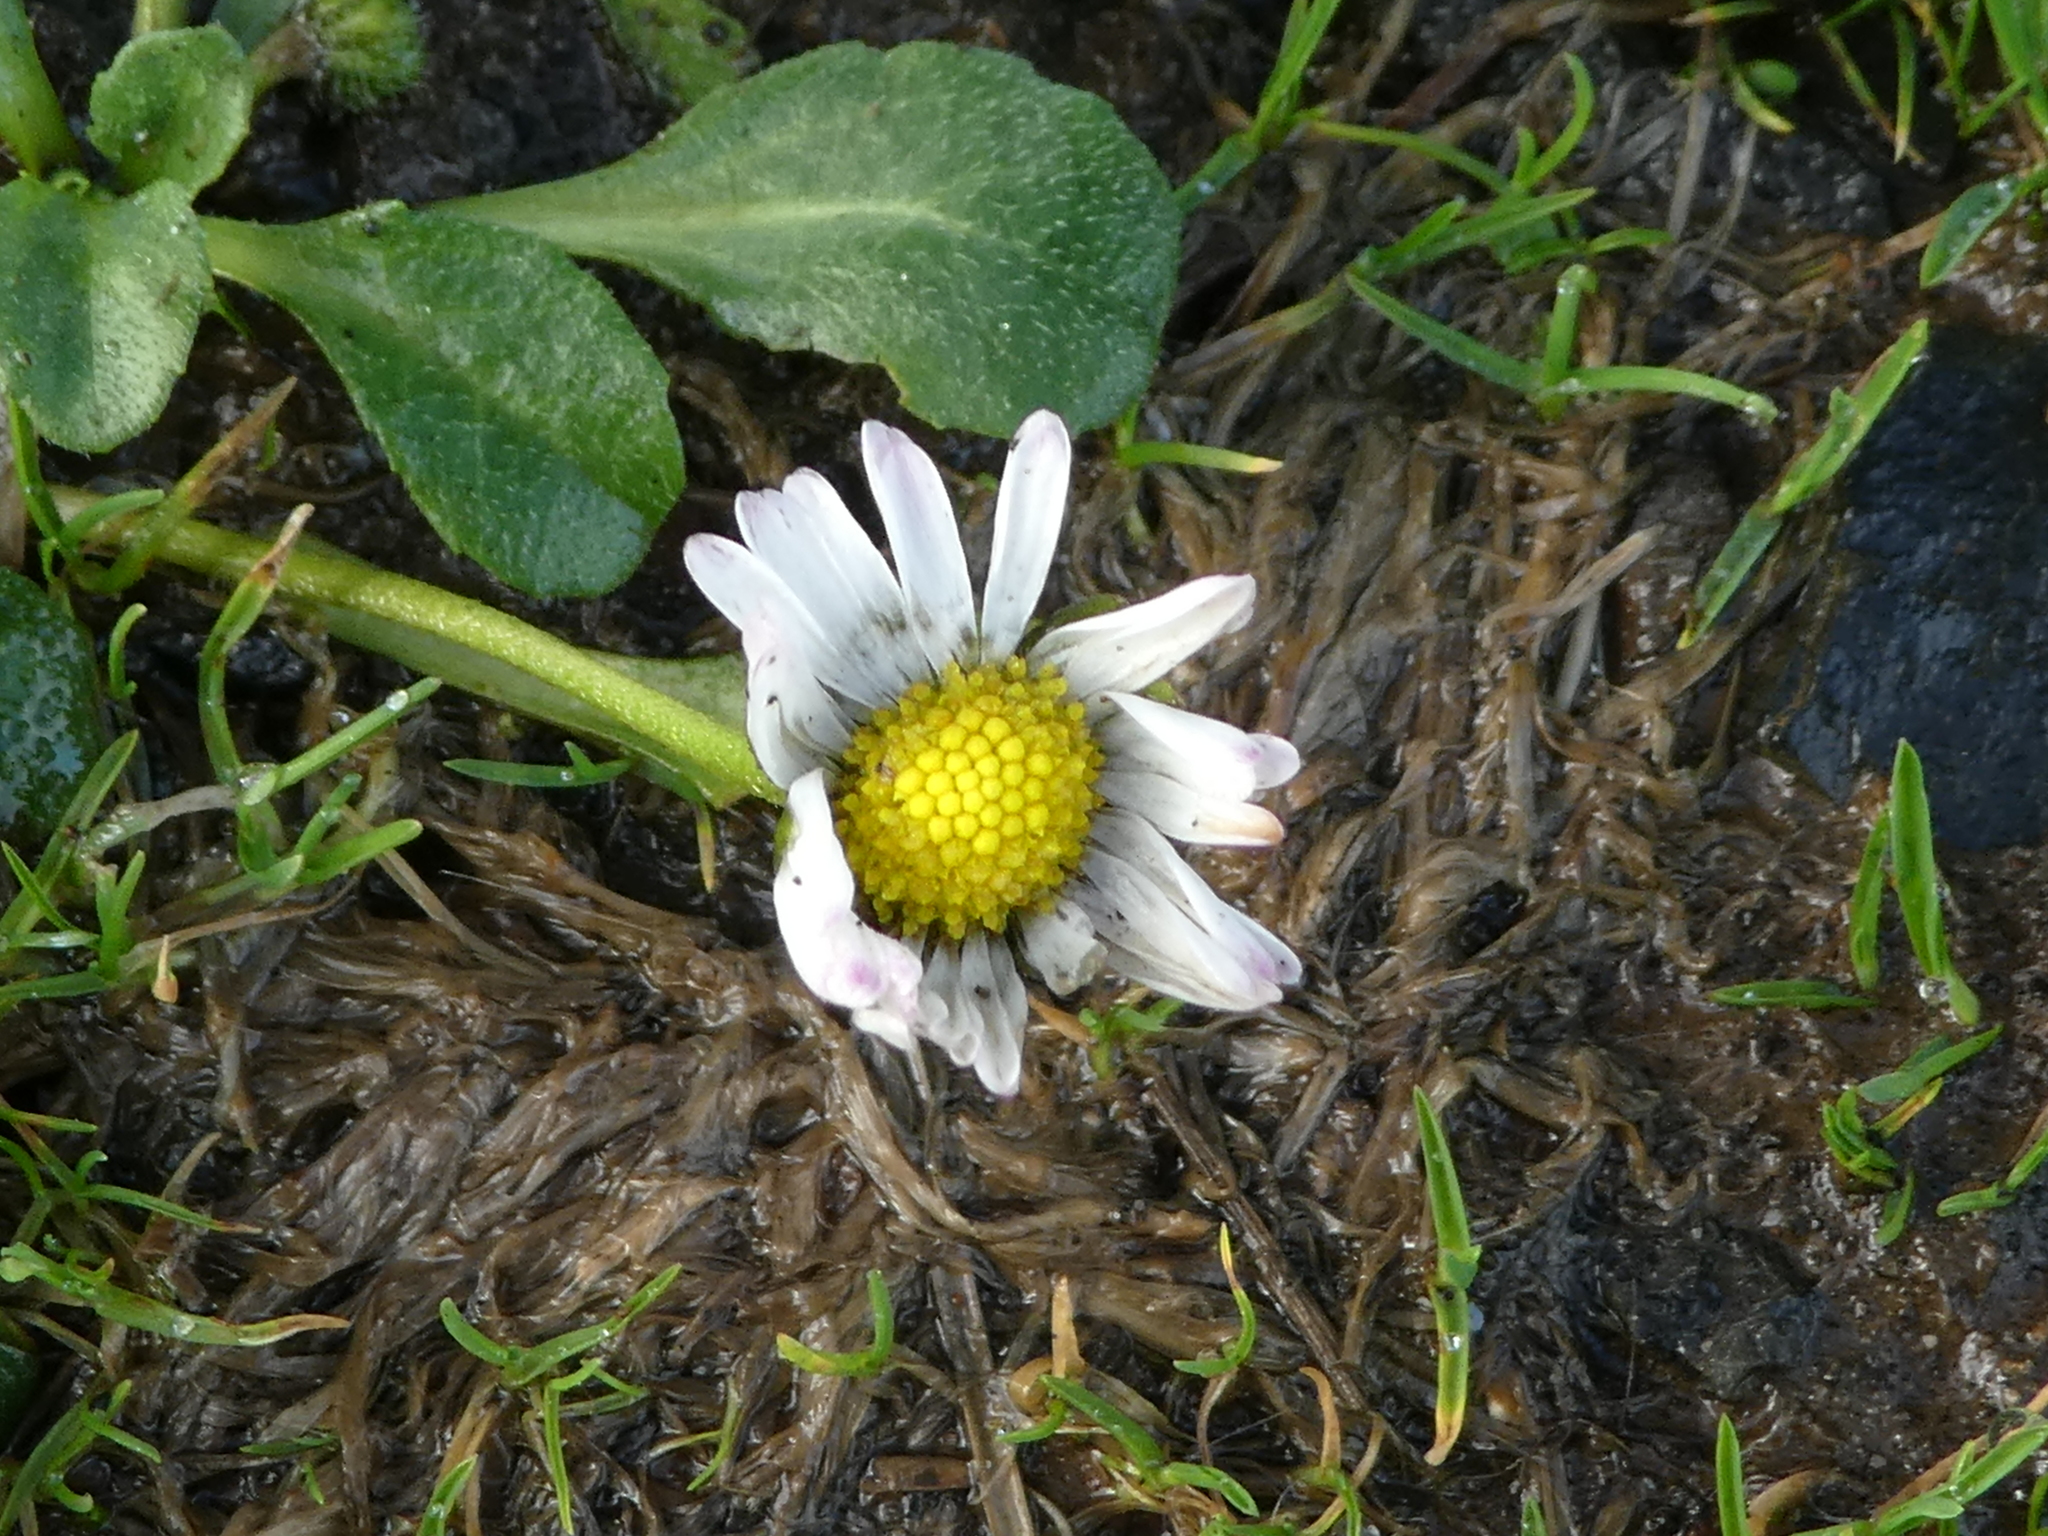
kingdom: Plantae
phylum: Tracheophyta
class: Magnoliopsida
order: Asterales
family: Asteraceae
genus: Bellis
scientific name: Bellis perennis
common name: Lawndaisy
